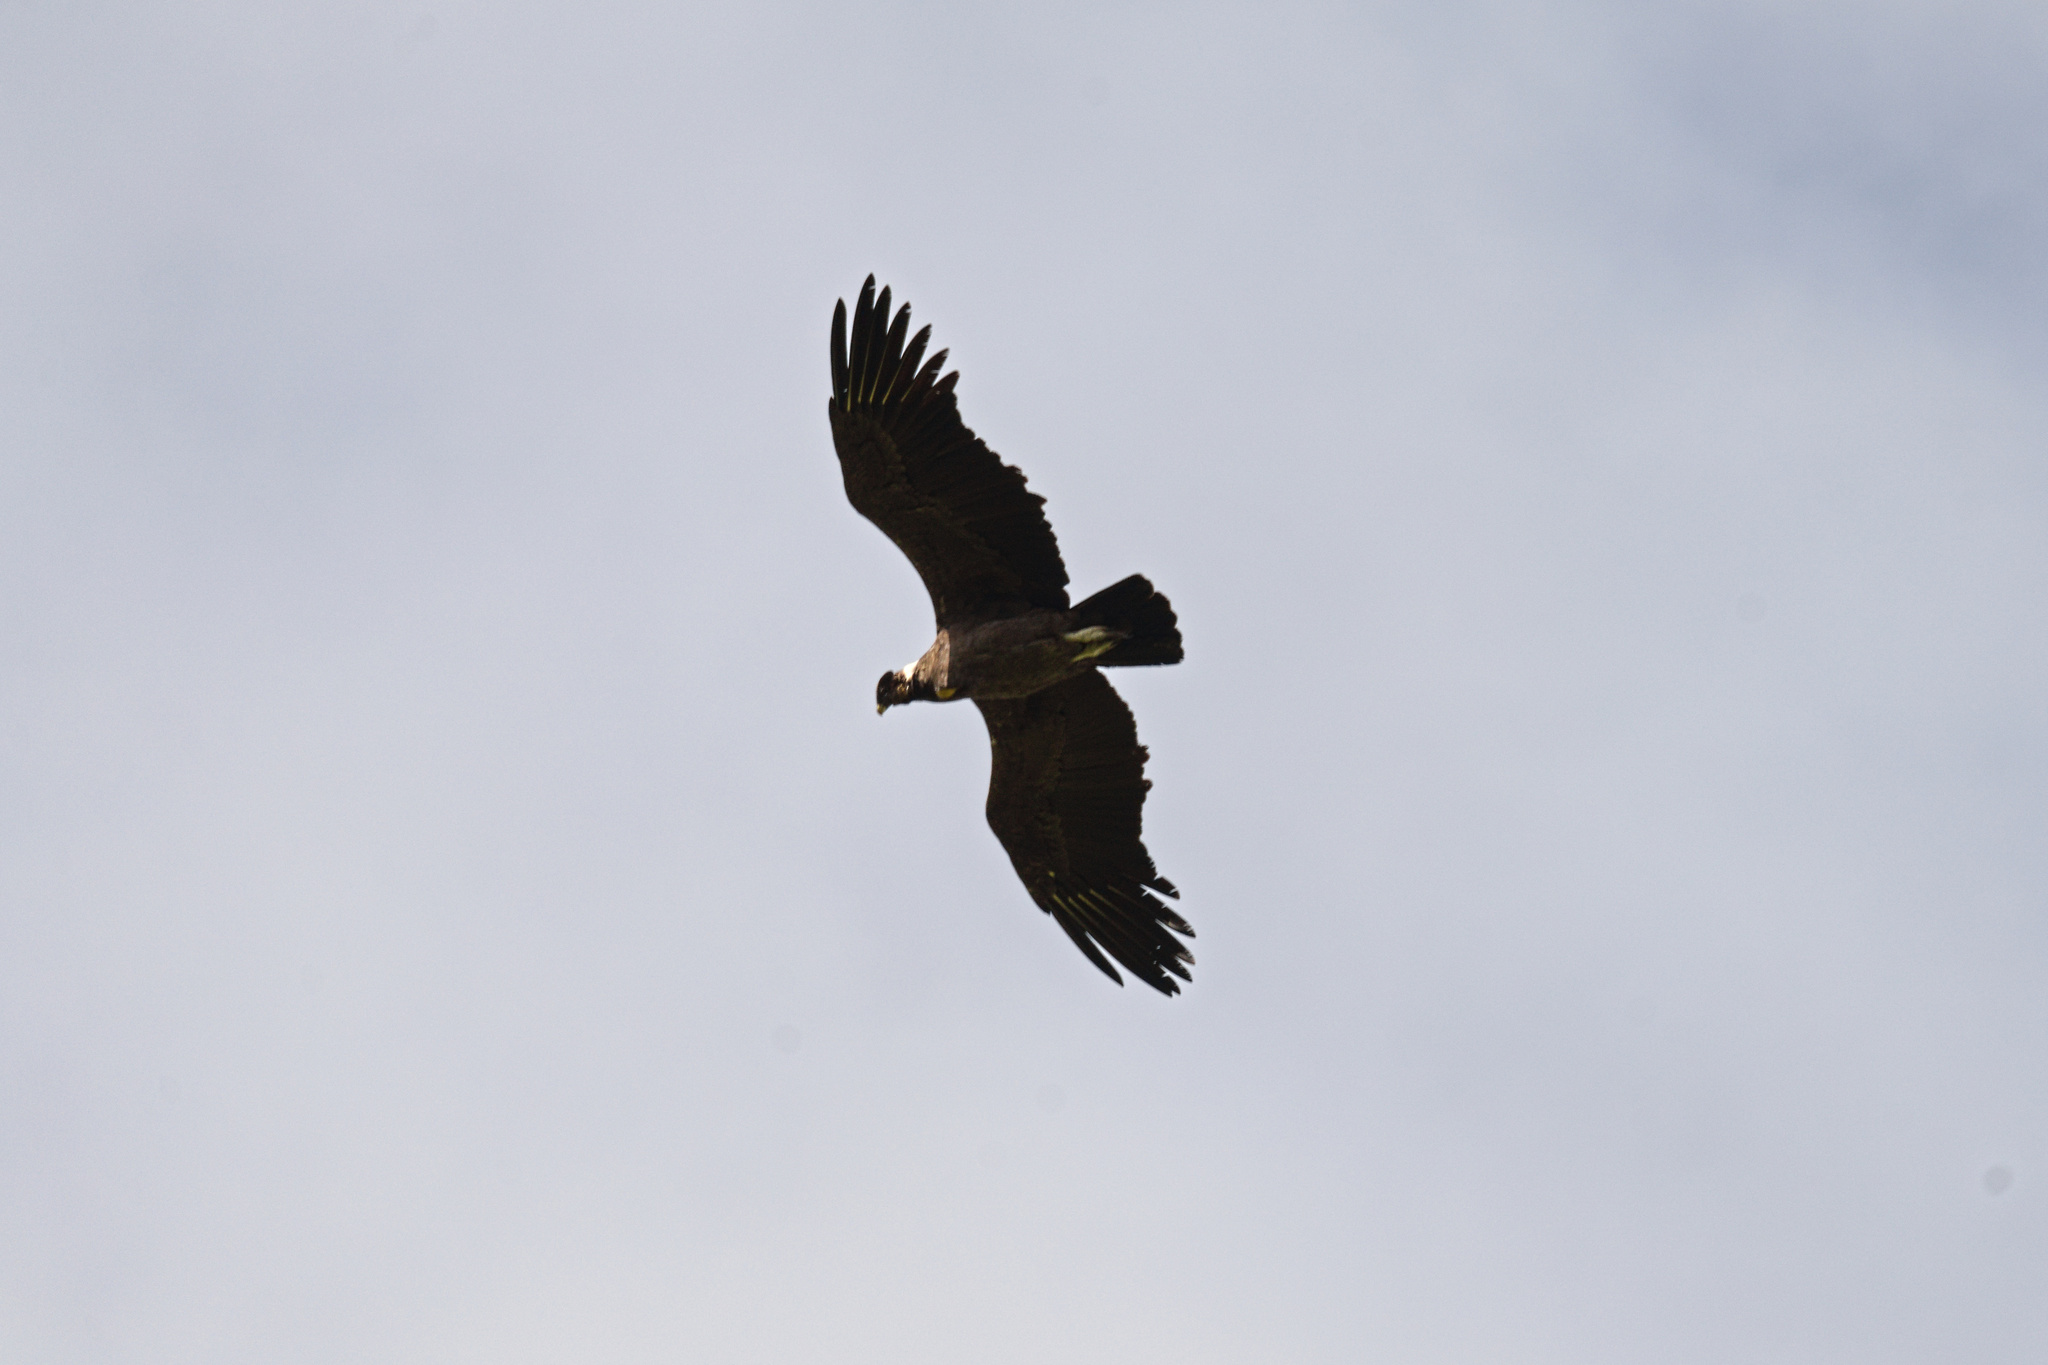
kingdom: Animalia
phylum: Chordata
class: Aves
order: Accipitriformes
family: Cathartidae
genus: Vultur
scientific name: Vultur gryphus
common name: Andean condor
